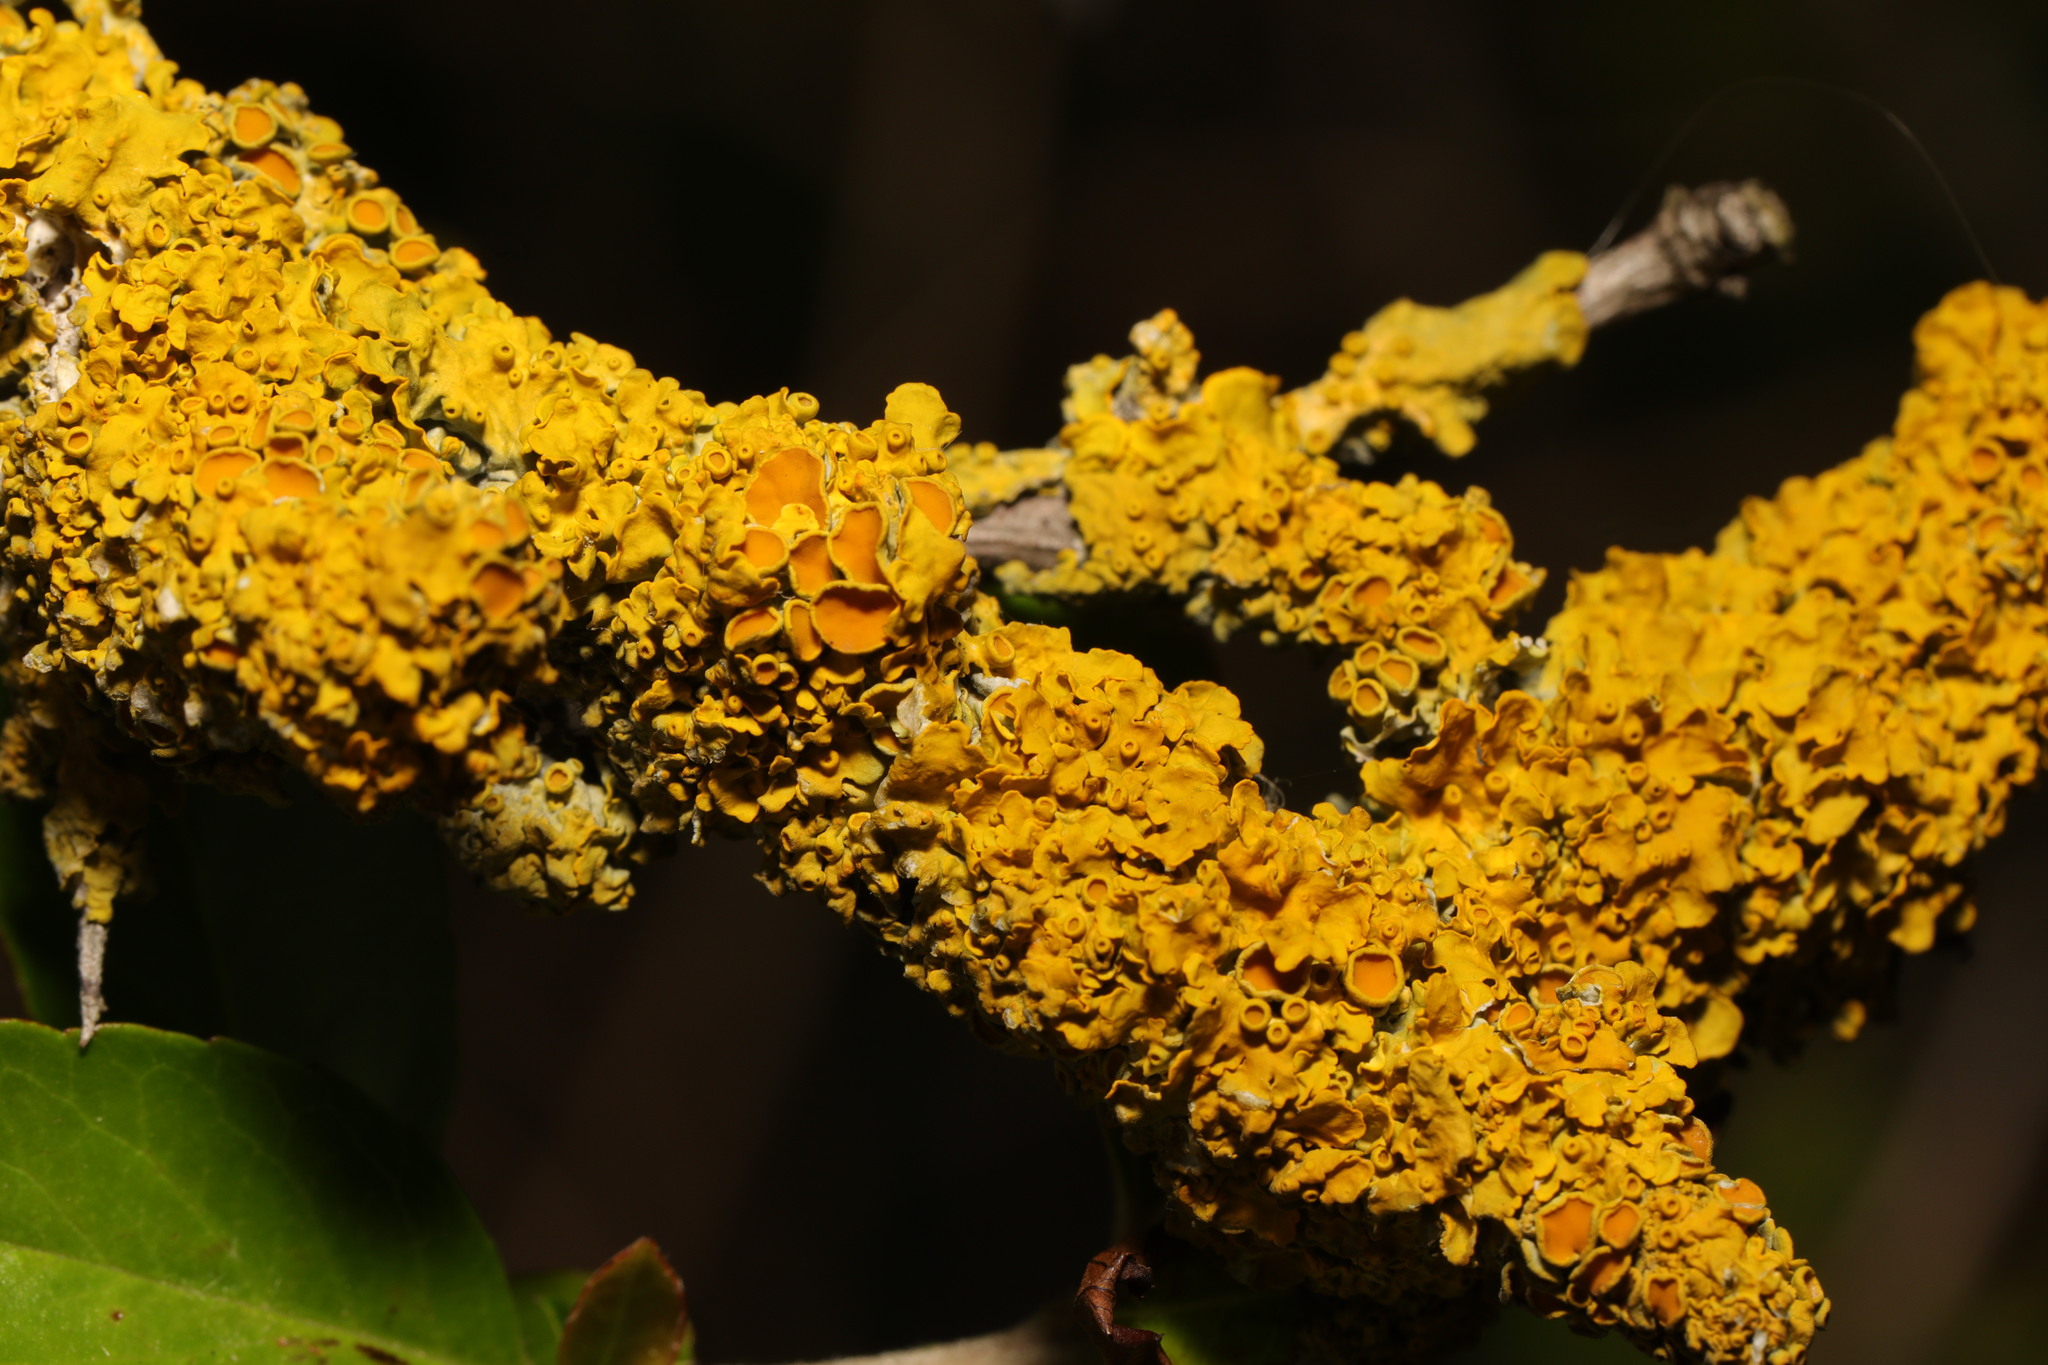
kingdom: Fungi
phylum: Ascomycota
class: Lecanoromycetes
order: Teloschistales
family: Teloschistaceae
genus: Xanthoria
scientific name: Xanthoria parietina
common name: Common orange lichen
